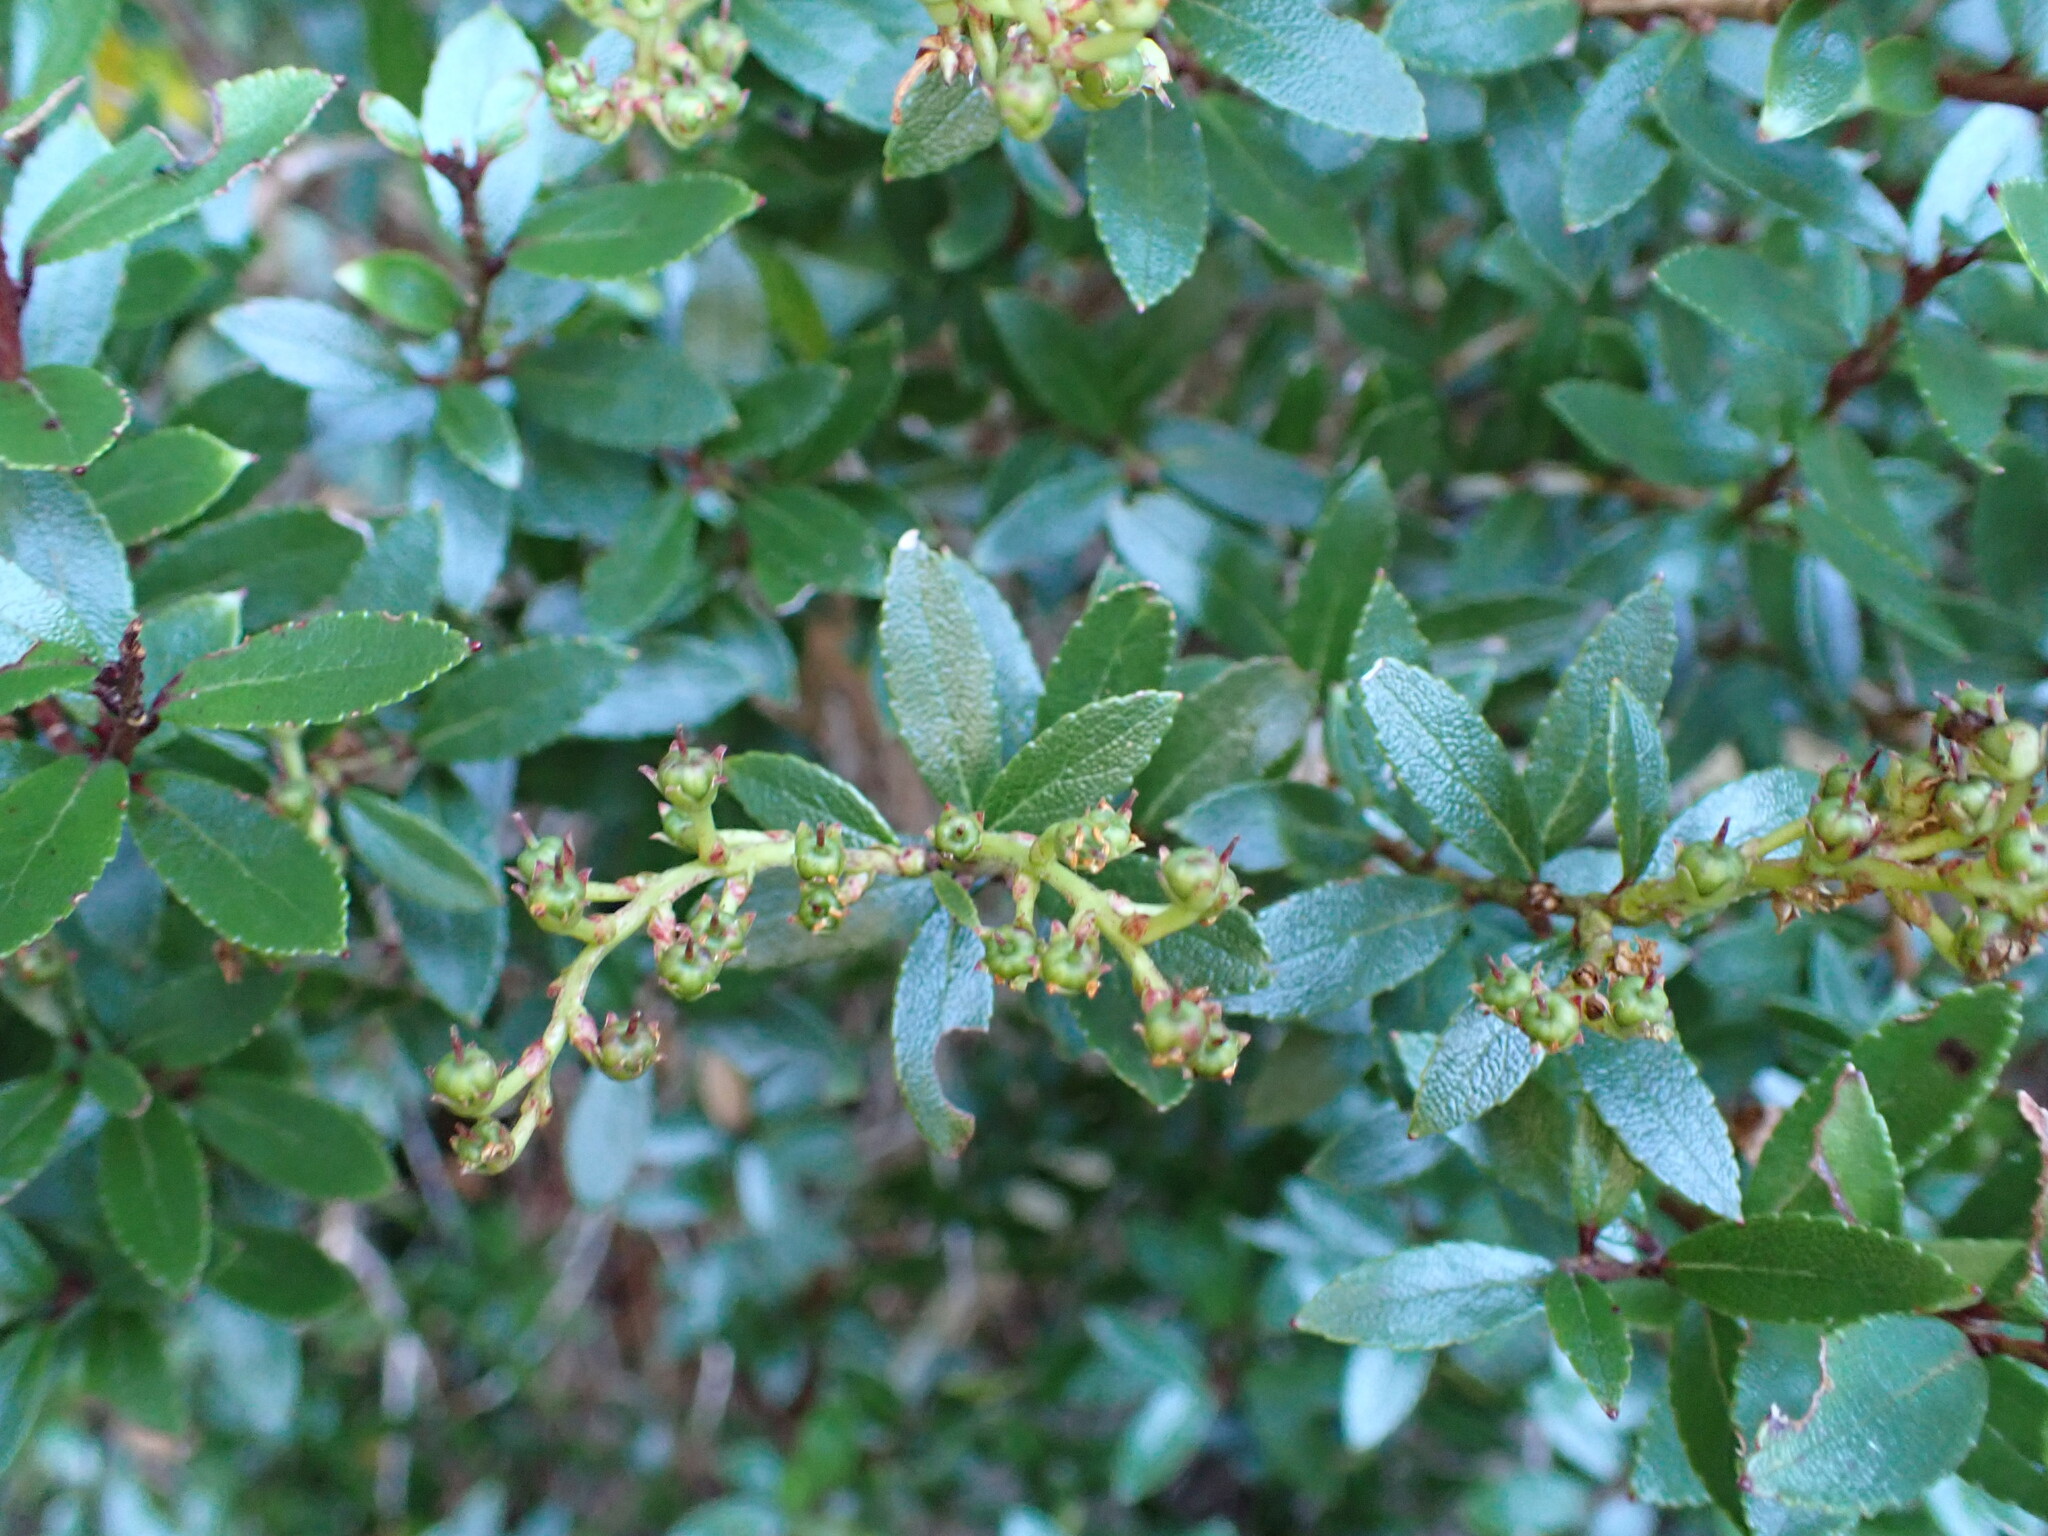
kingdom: Plantae
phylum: Tracheophyta
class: Magnoliopsida
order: Ericales
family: Ericaceae
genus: Gaultheria
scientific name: Gaultheria rupestris
